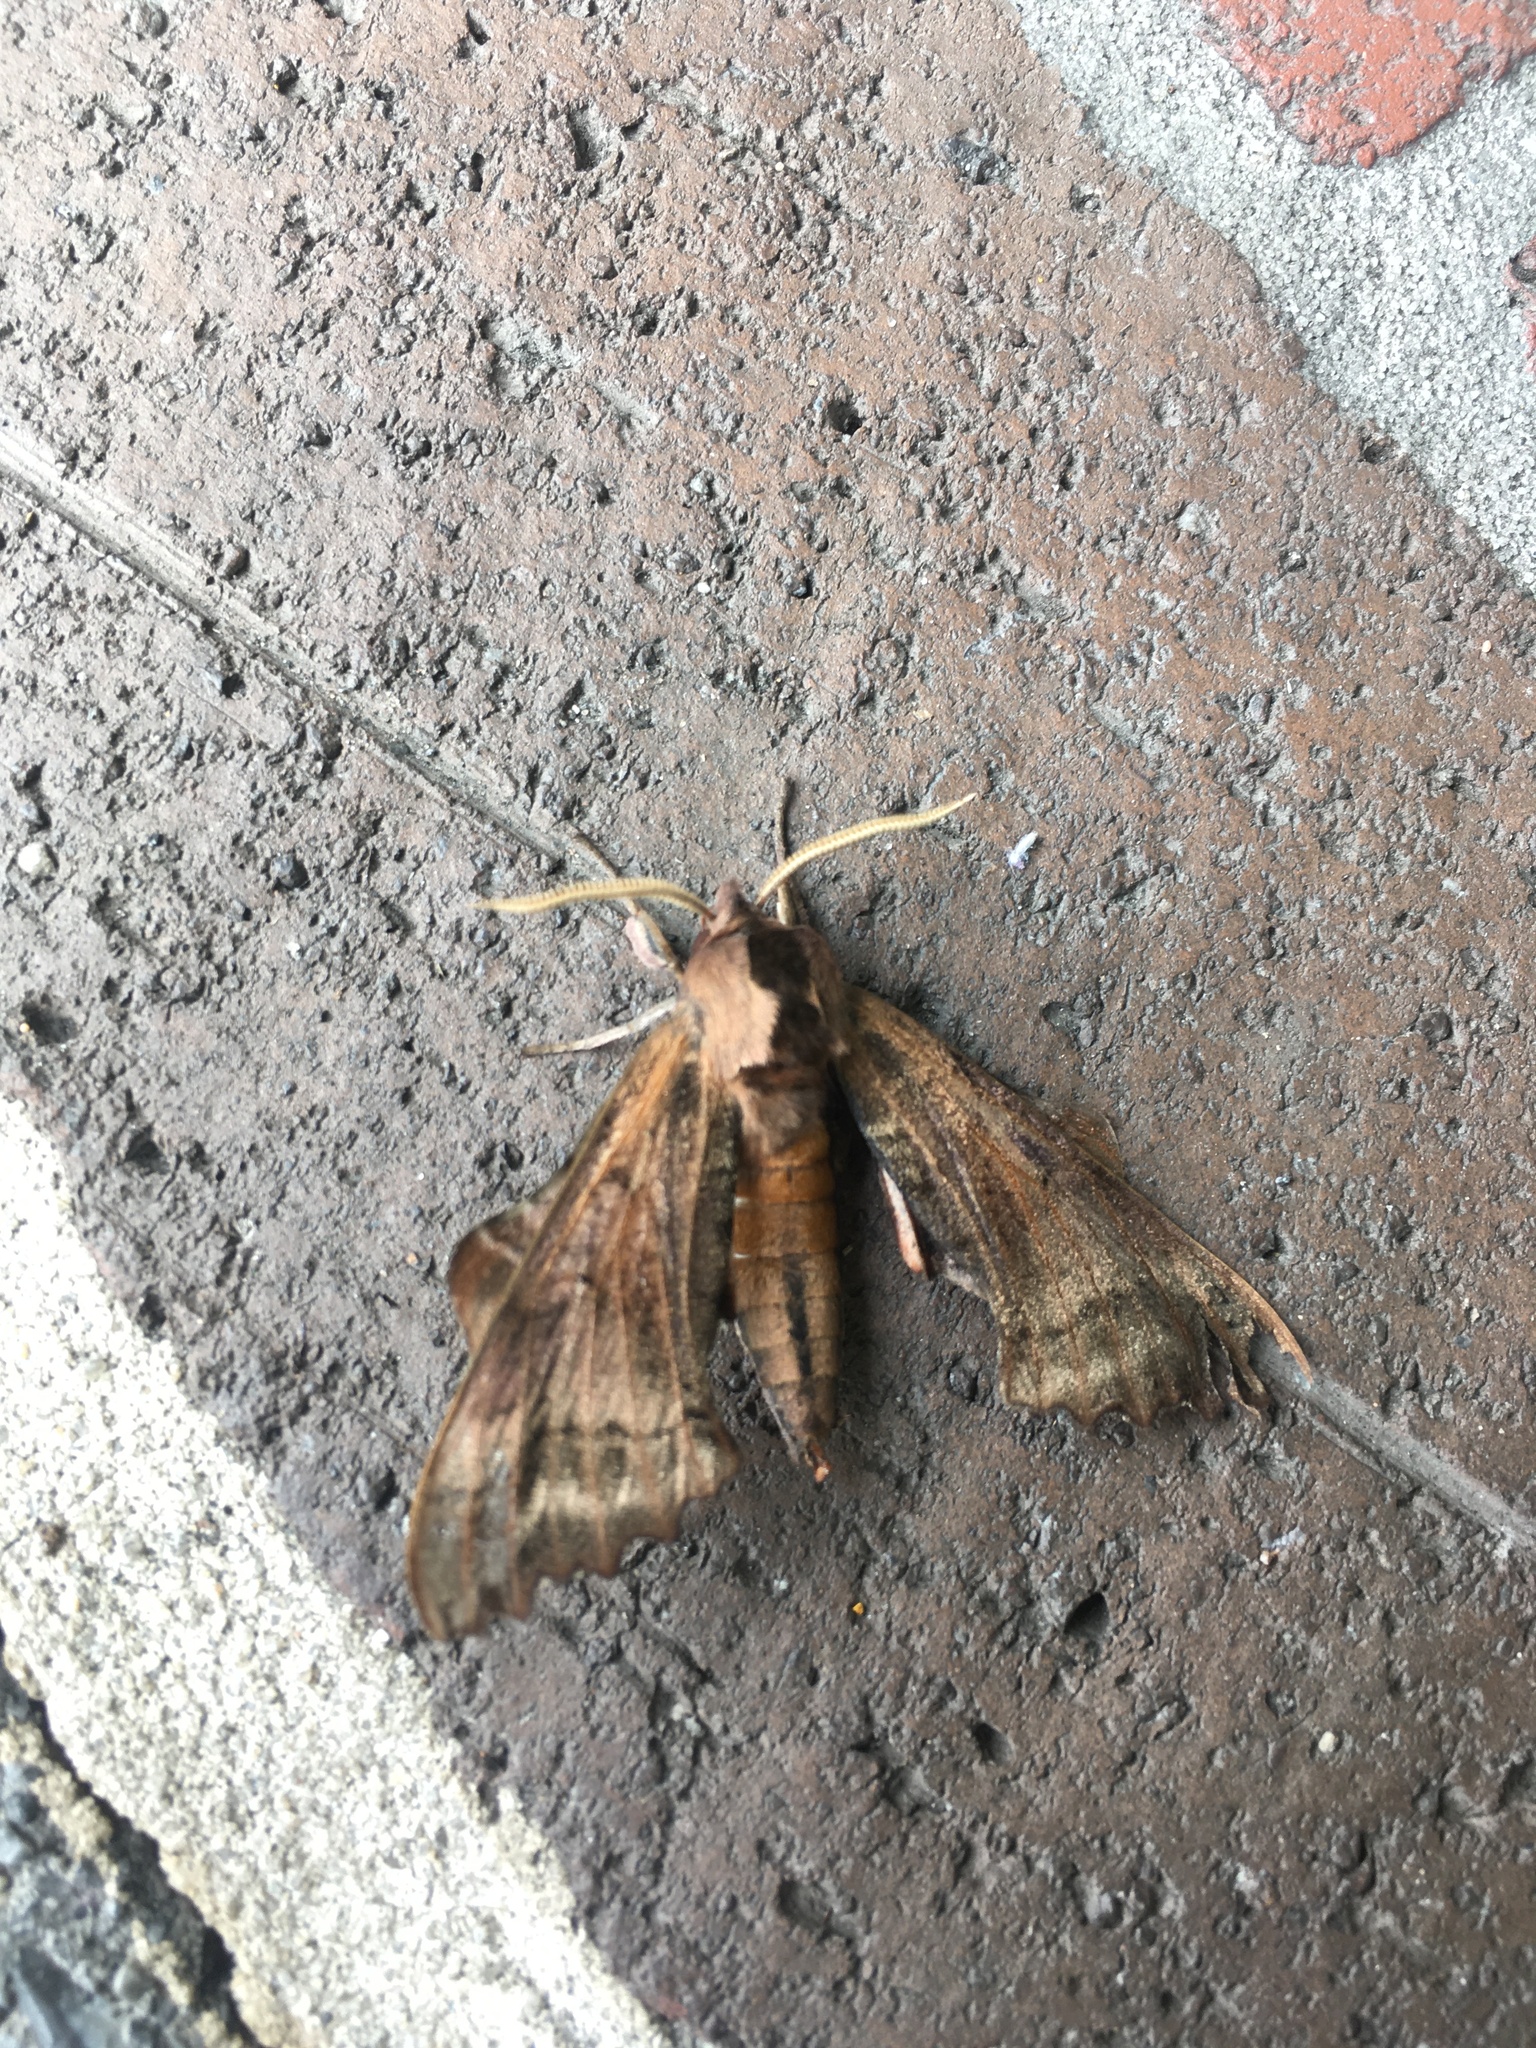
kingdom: Animalia
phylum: Arthropoda
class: Insecta
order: Lepidoptera
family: Sphingidae
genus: Paonias
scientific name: Paonias excaecata
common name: Blind-eyed sphinx
